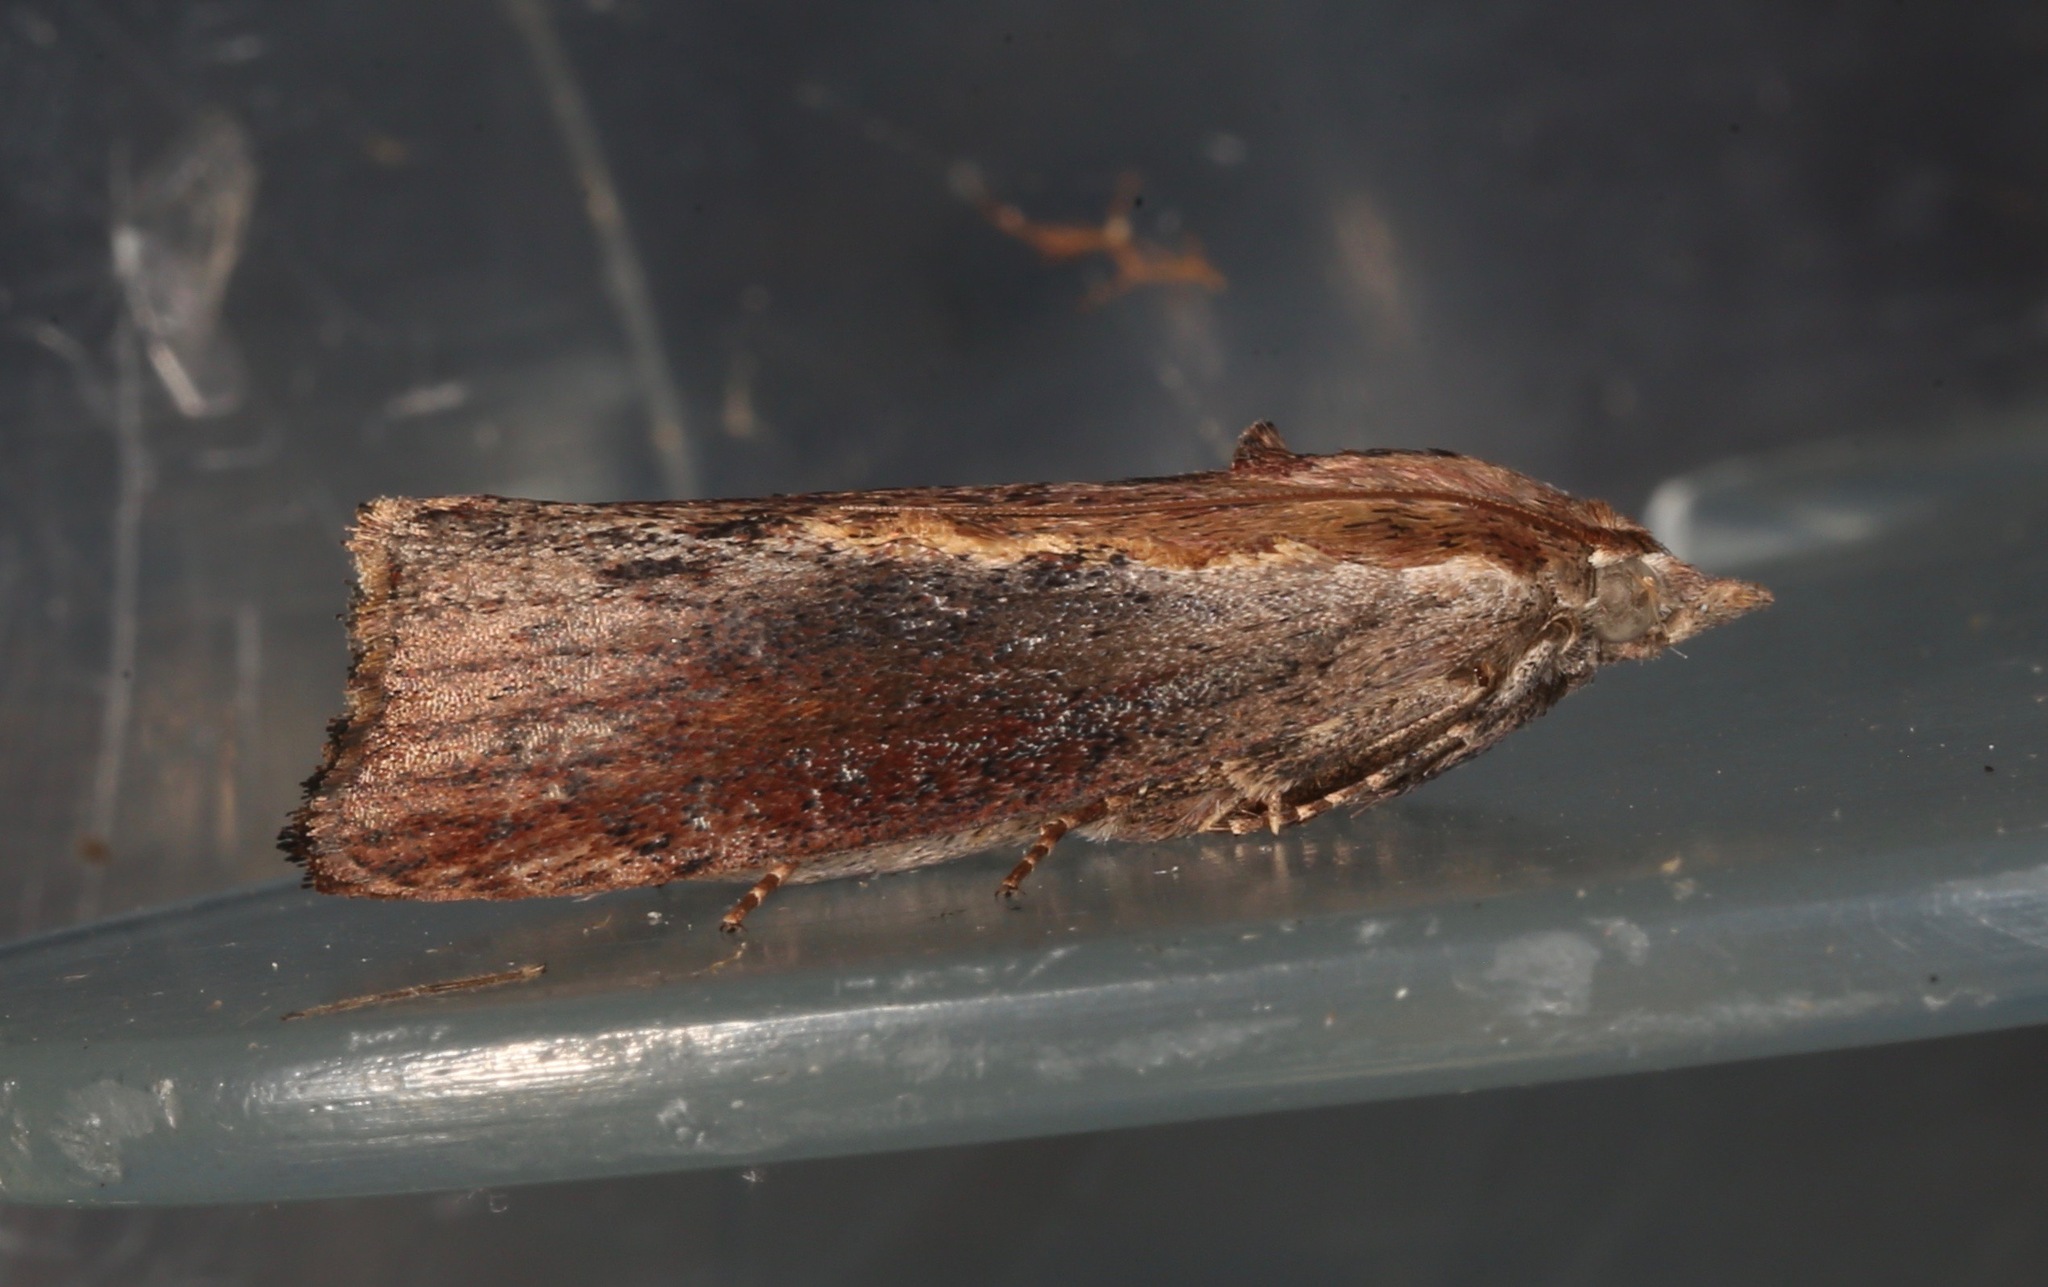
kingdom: Animalia
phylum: Arthropoda
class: Insecta
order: Lepidoptera
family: Pyralidae
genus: Galleria
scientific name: Galleria mellonella
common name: Greater wax moth
